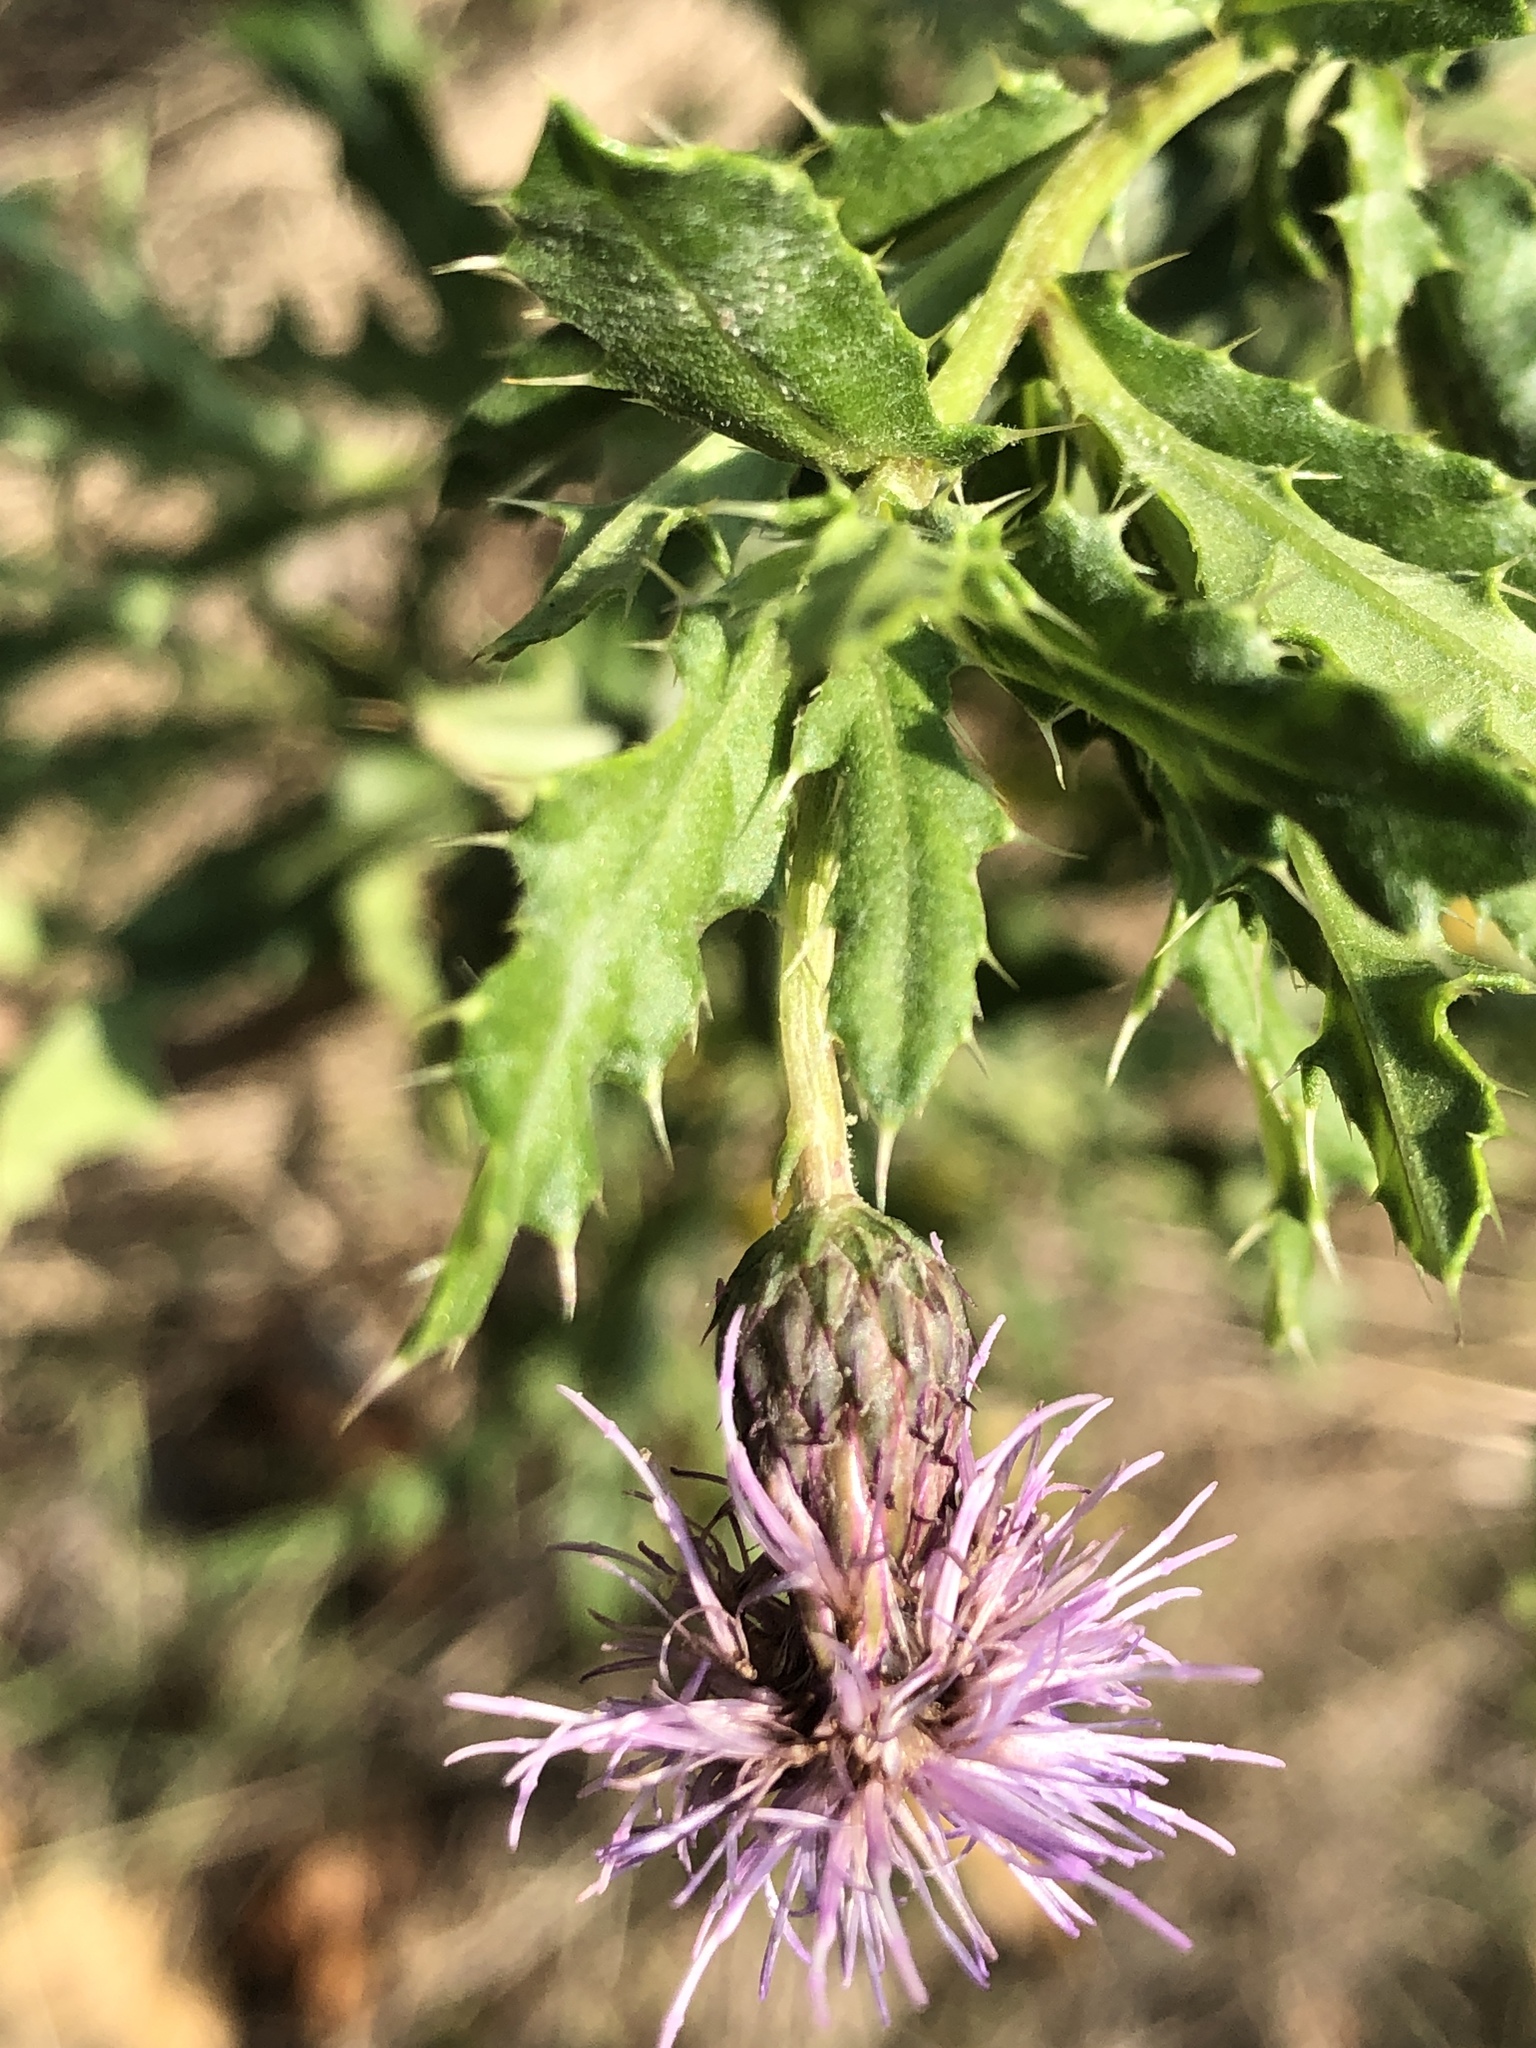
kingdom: Plantae
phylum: Tracheophyta
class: Magnoliopsida
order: Asterales
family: Asteraceae
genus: Cirsium
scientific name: Cirsium arvense
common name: Creeping thistle
